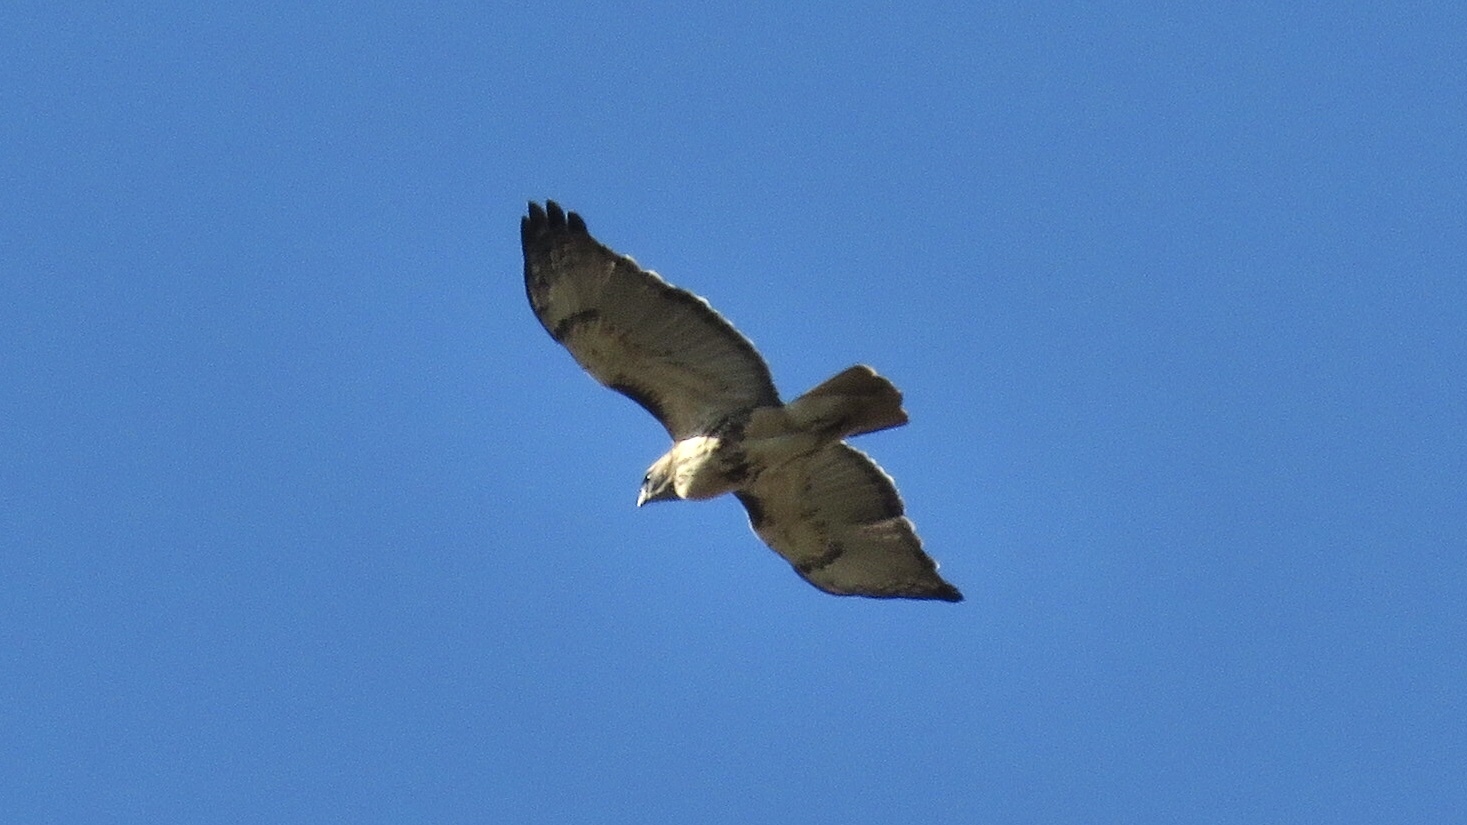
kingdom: Animalia
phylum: Chordata
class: Aves
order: Accipitriformes
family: Accipitridae
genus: Buteo
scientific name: Buteo jamaicensis
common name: Red-tailed hawk
